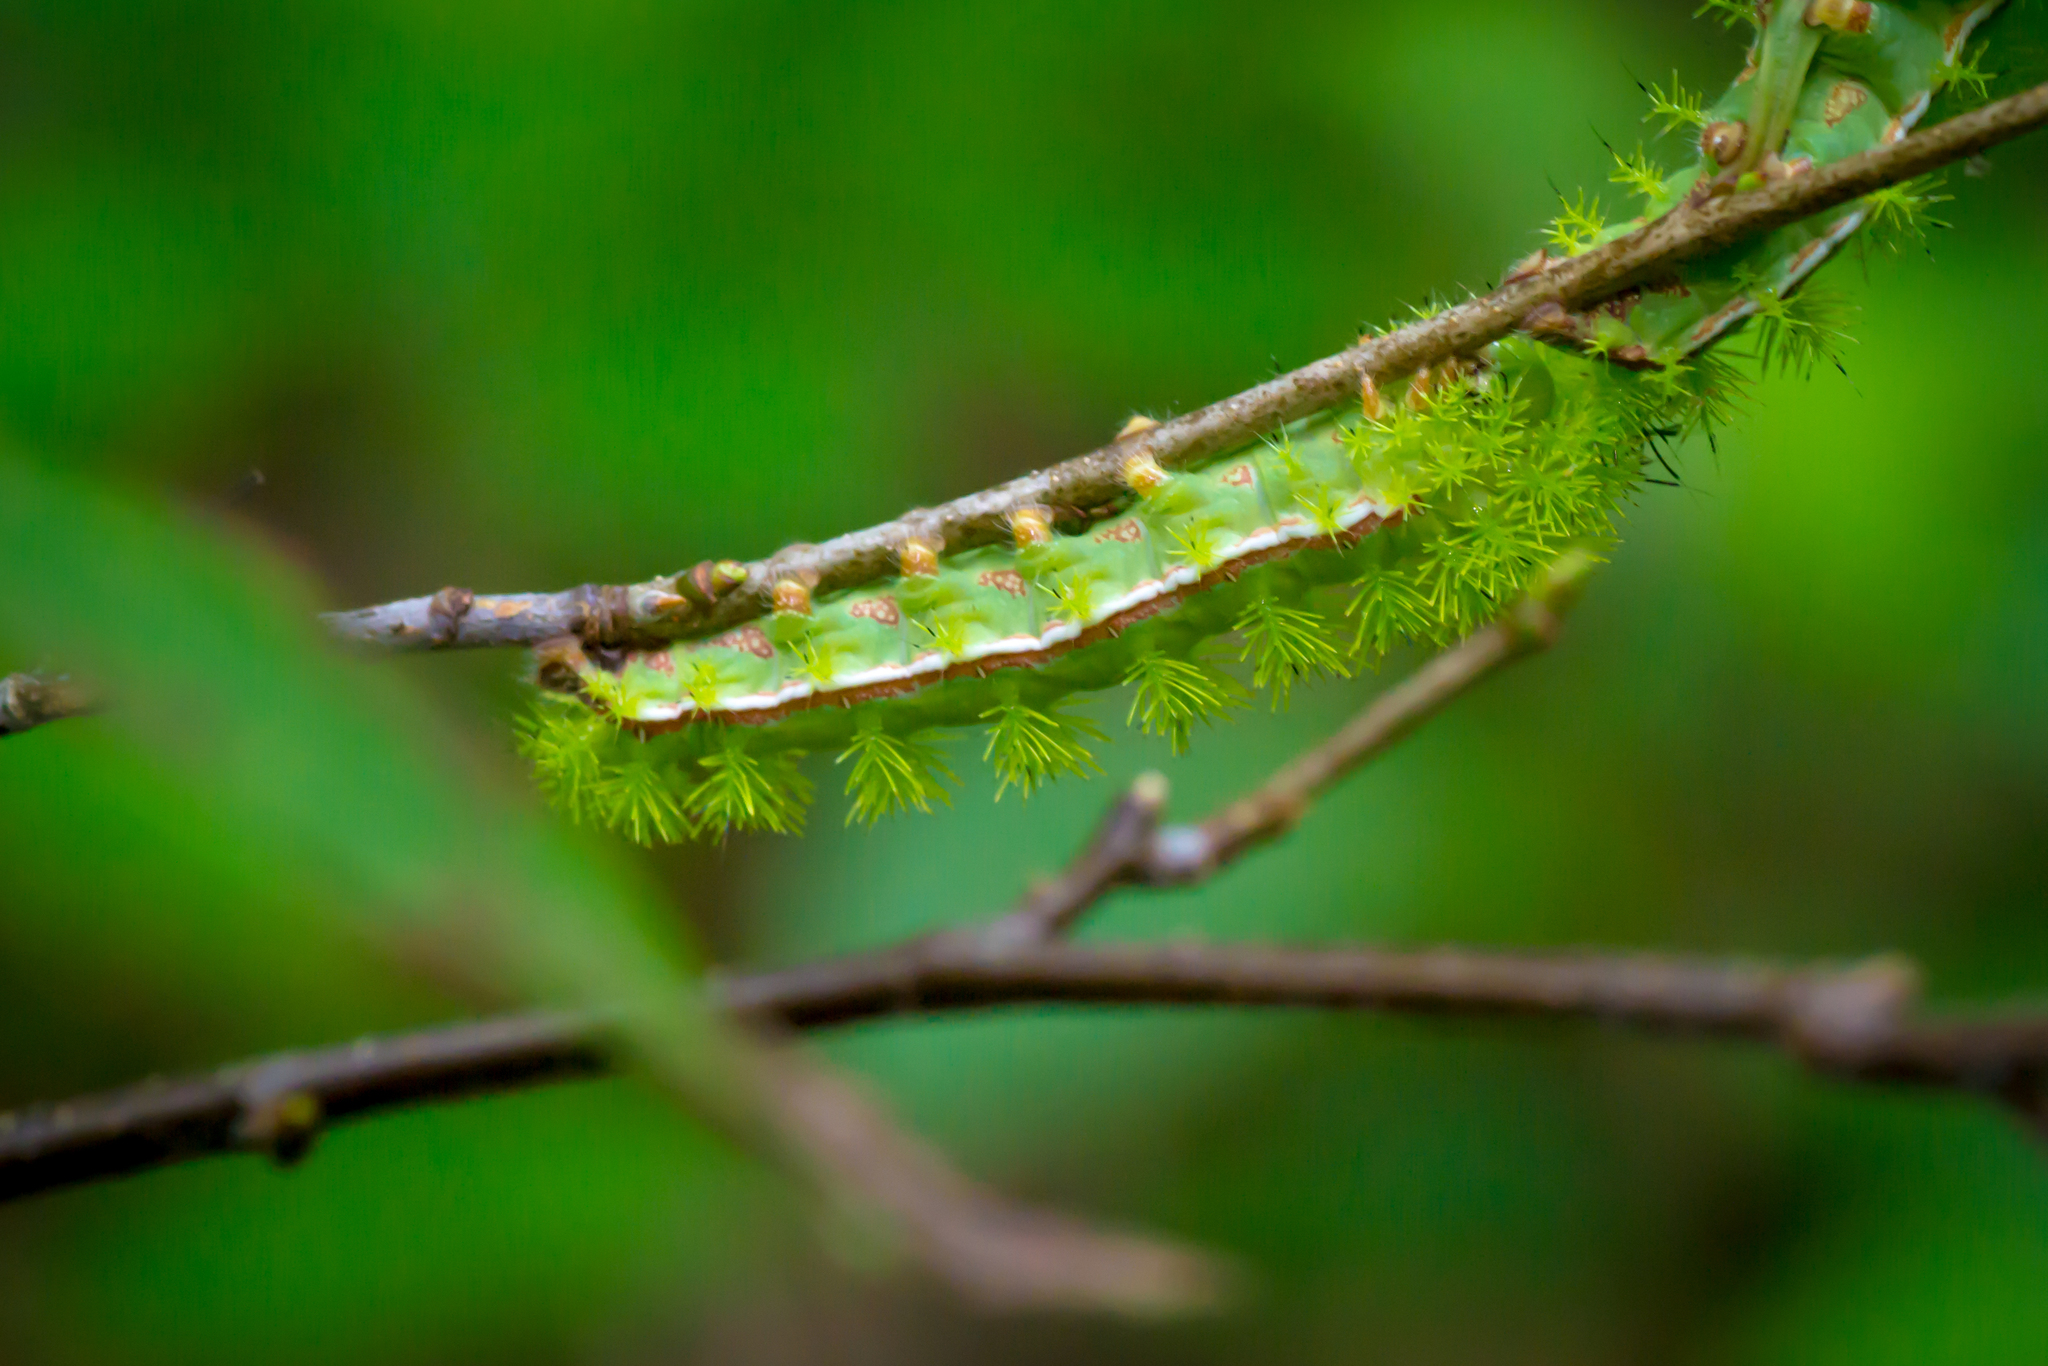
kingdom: Animalia
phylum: Arthropoda
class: Insecta
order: Lepidoptera
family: Saturniidae
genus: Automeris
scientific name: Automeris io
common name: Io moth
